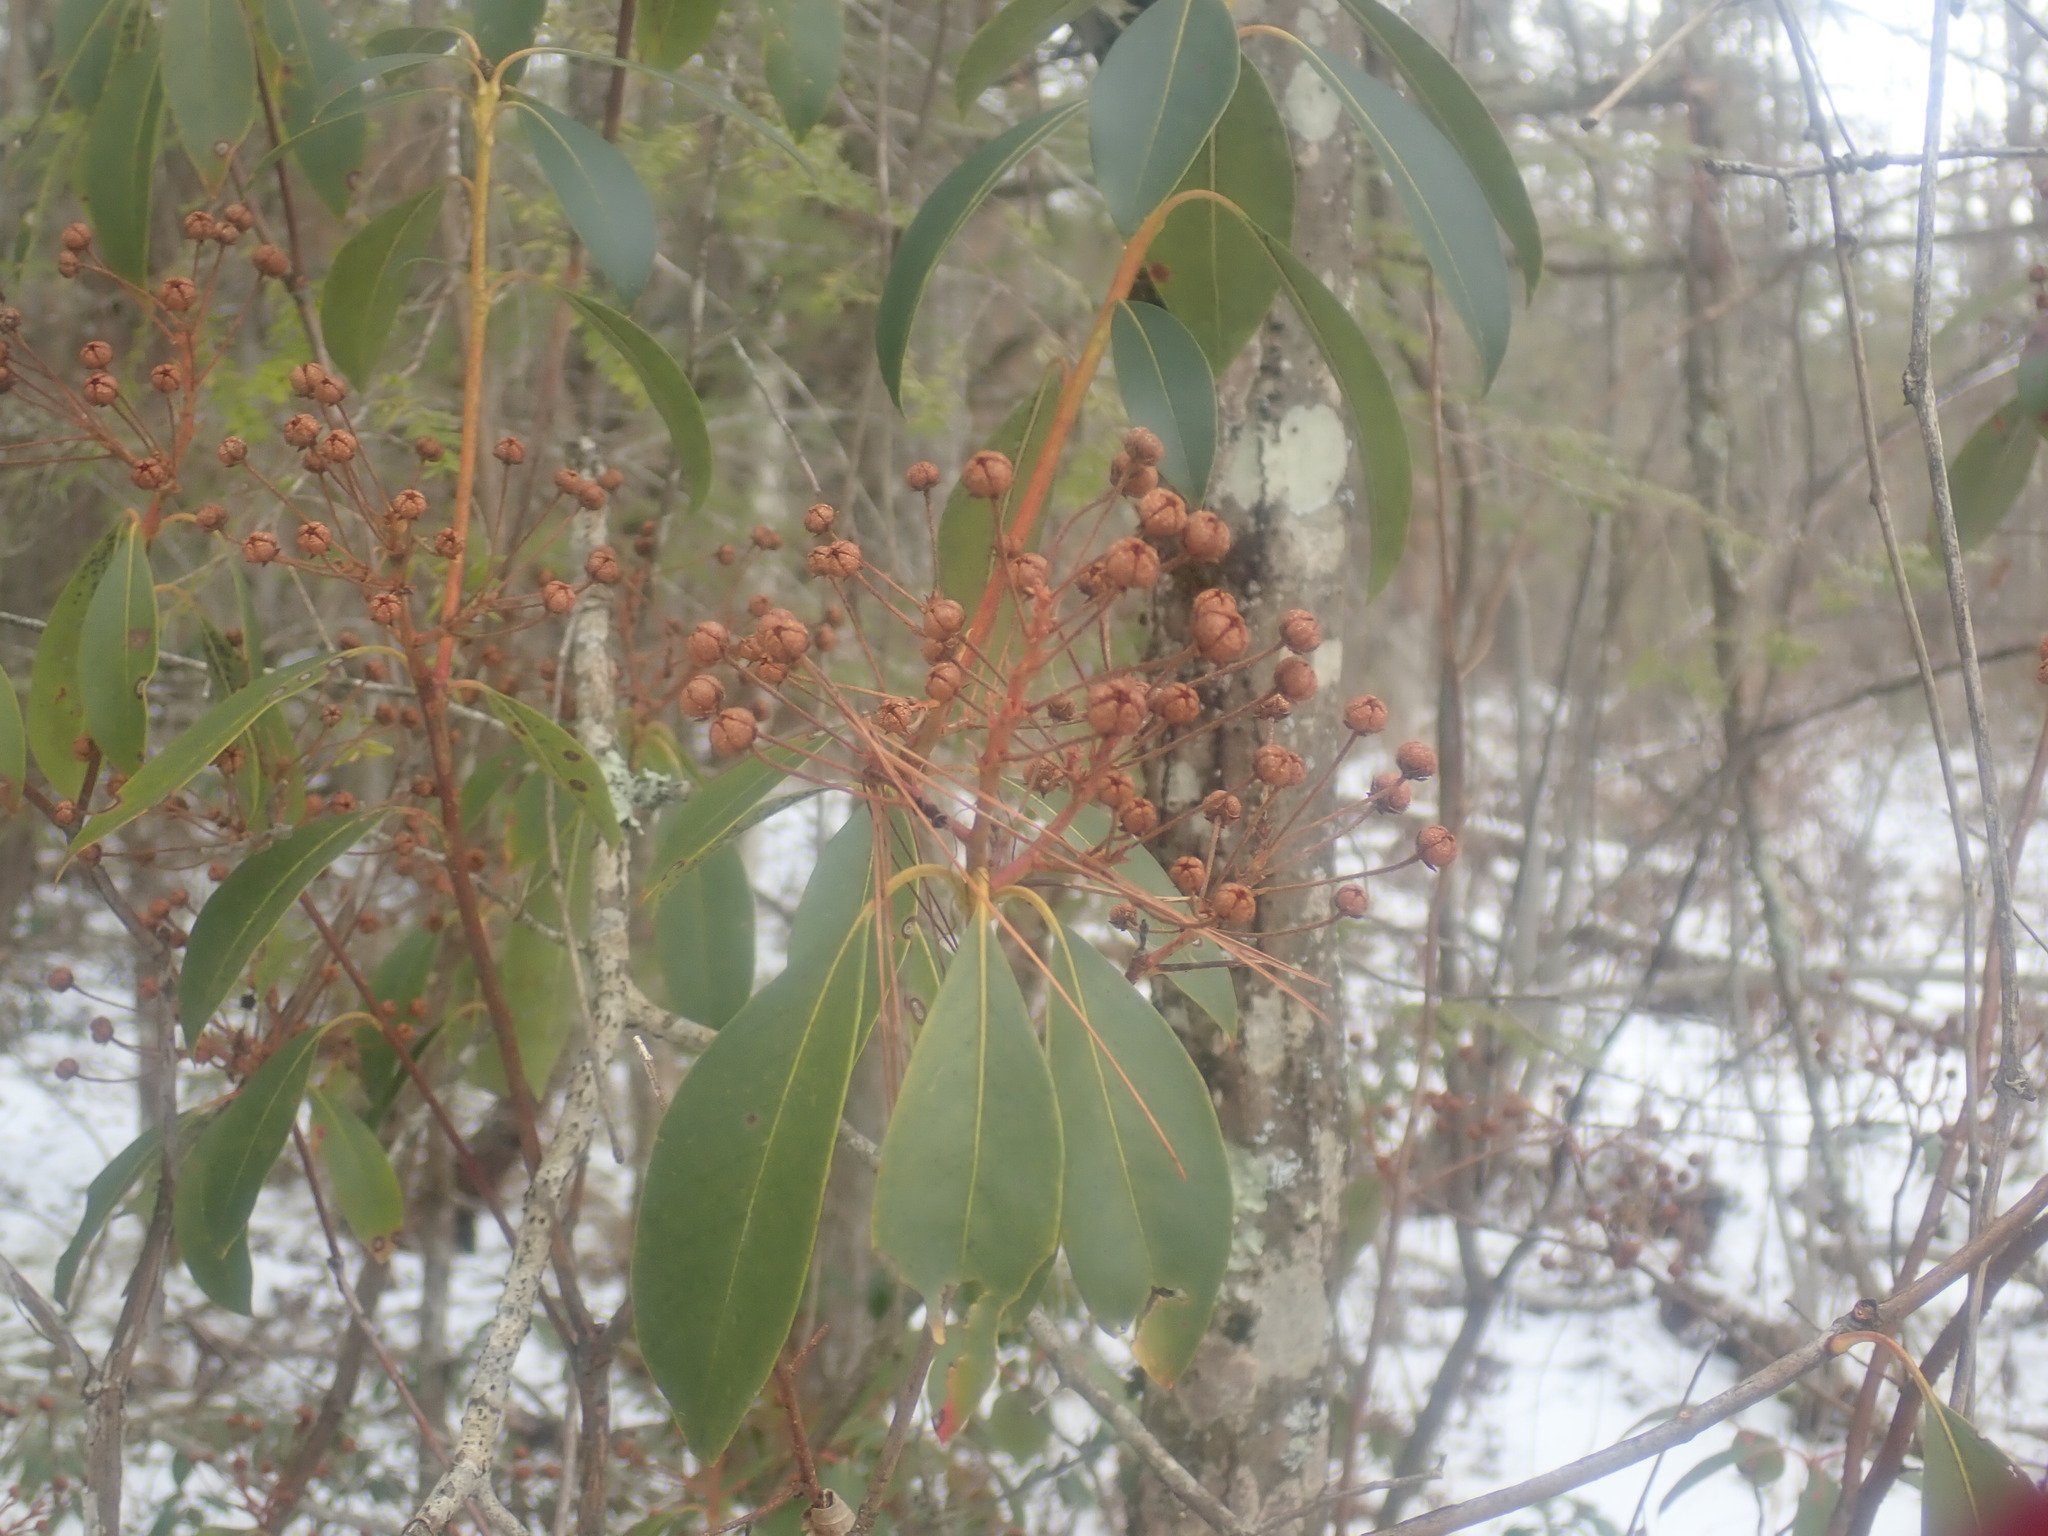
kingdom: Plantae
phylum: Tracheophyta
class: Magnoliopsida
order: Ericales
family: Ericaceae
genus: Kalmia
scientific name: Kalmia latifolia
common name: Mountain-laurel
